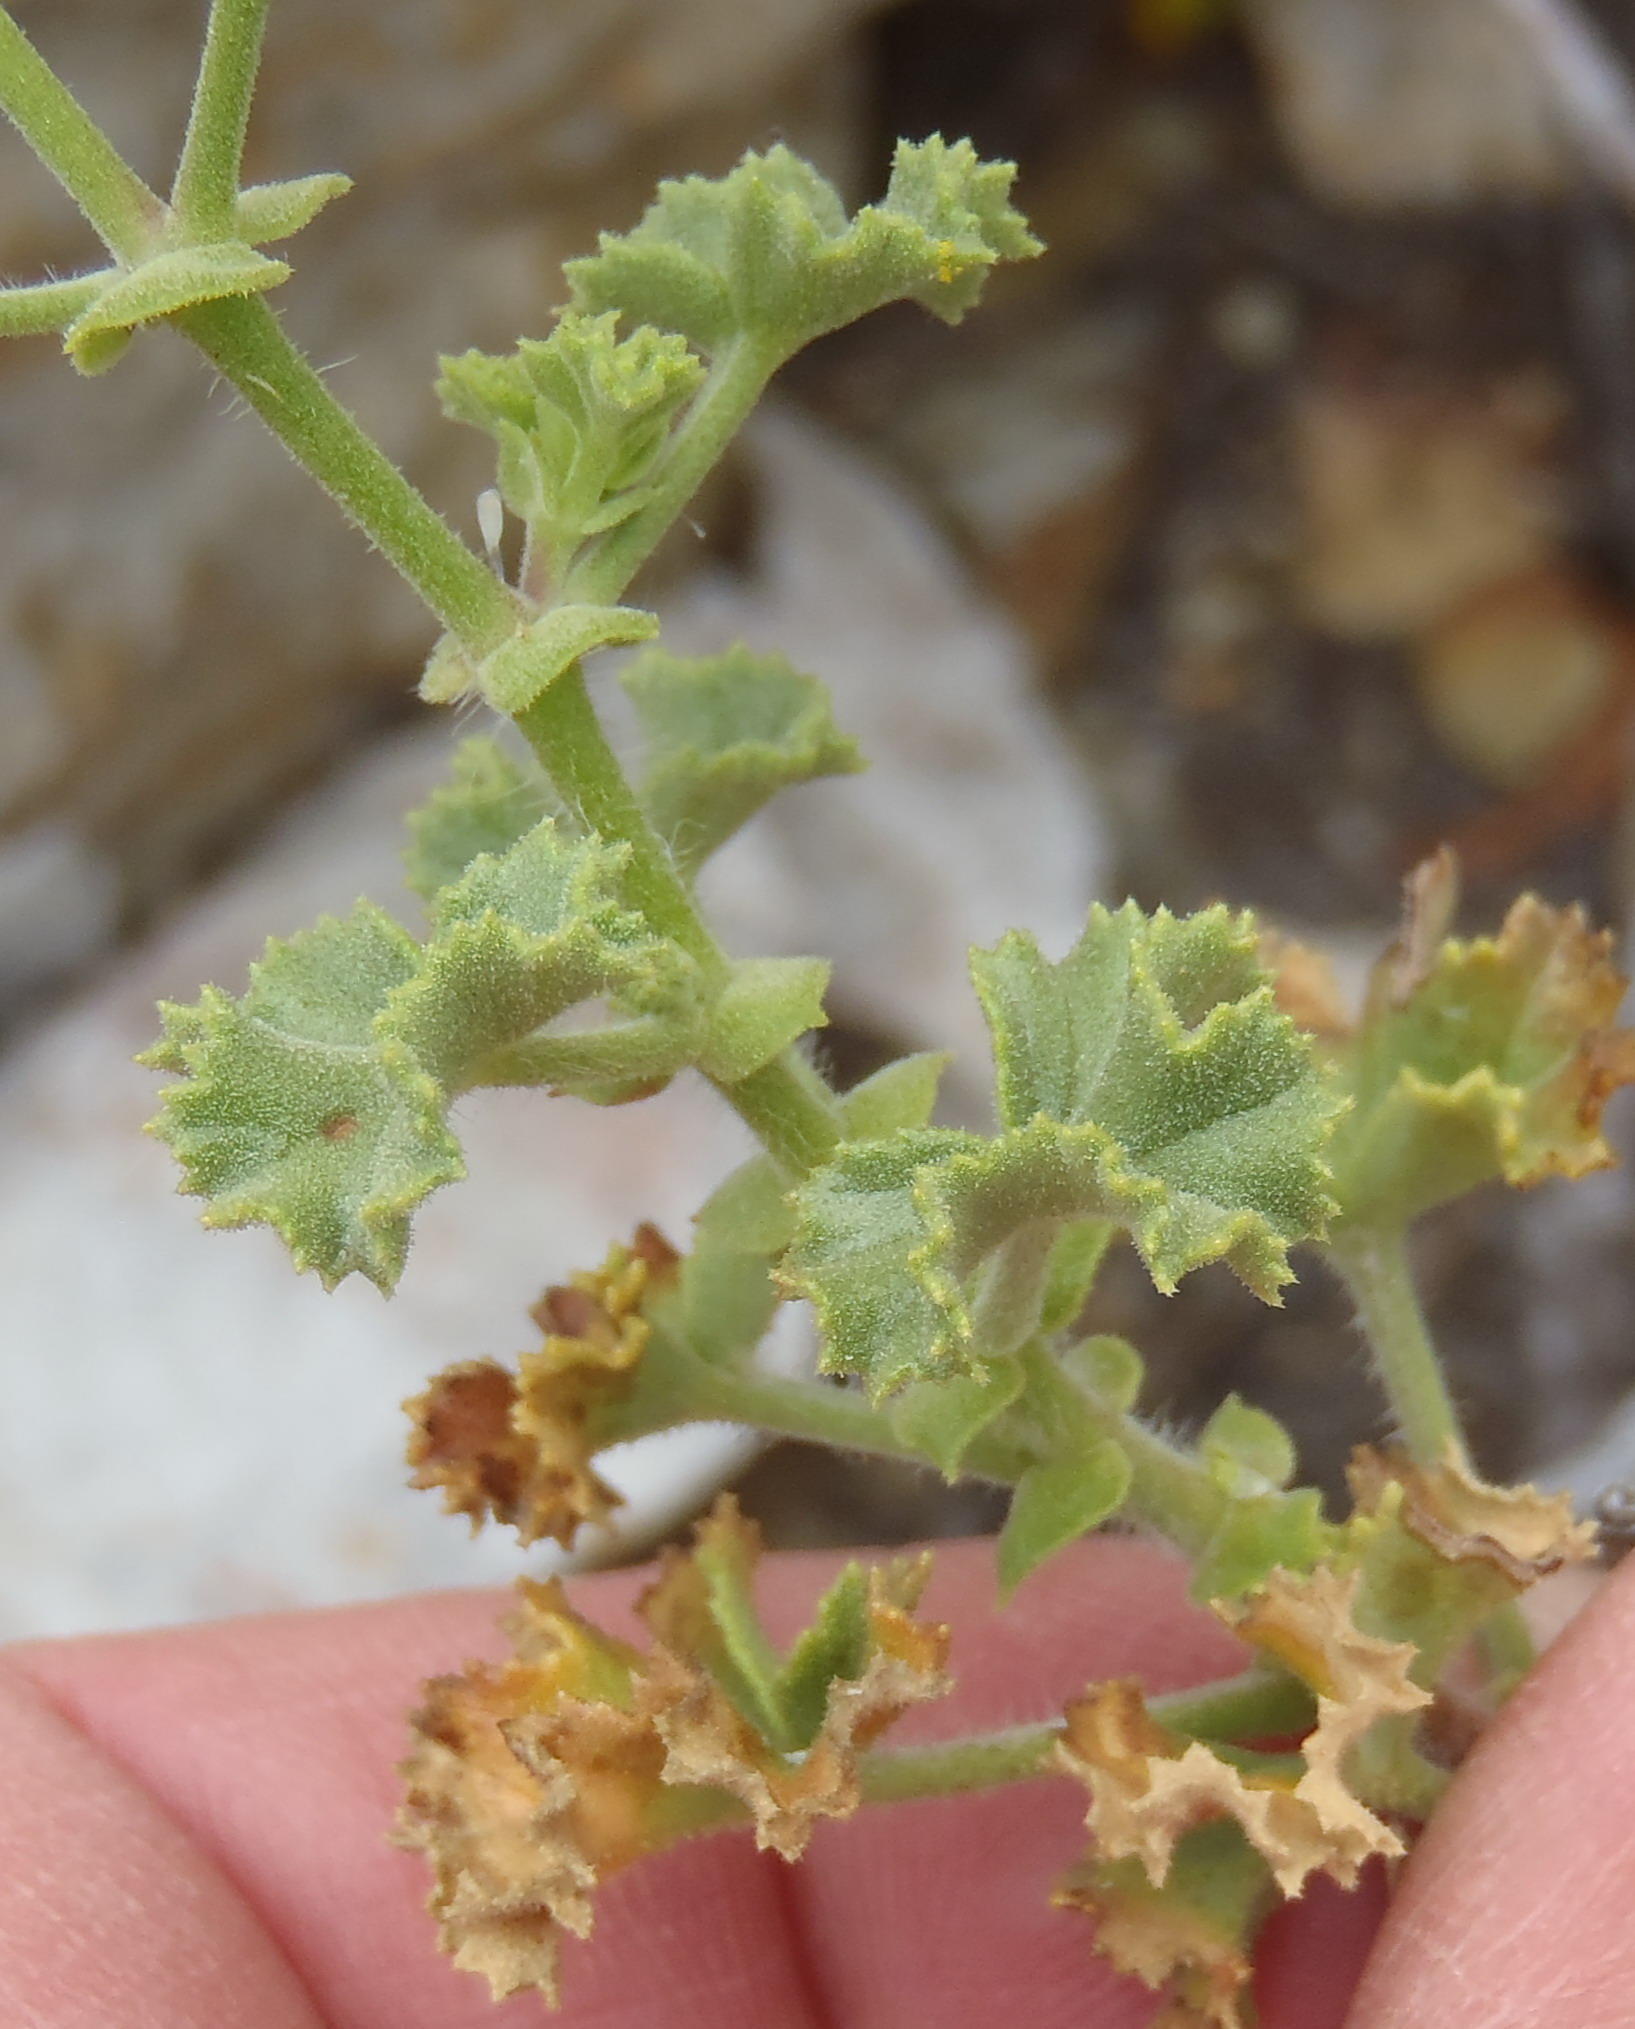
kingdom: Plantae
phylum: Tracheophyta
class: Magnoliopsida
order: Geraniales
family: Geraniaceae
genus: Pelargonium
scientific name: Pelargonium englerianum
